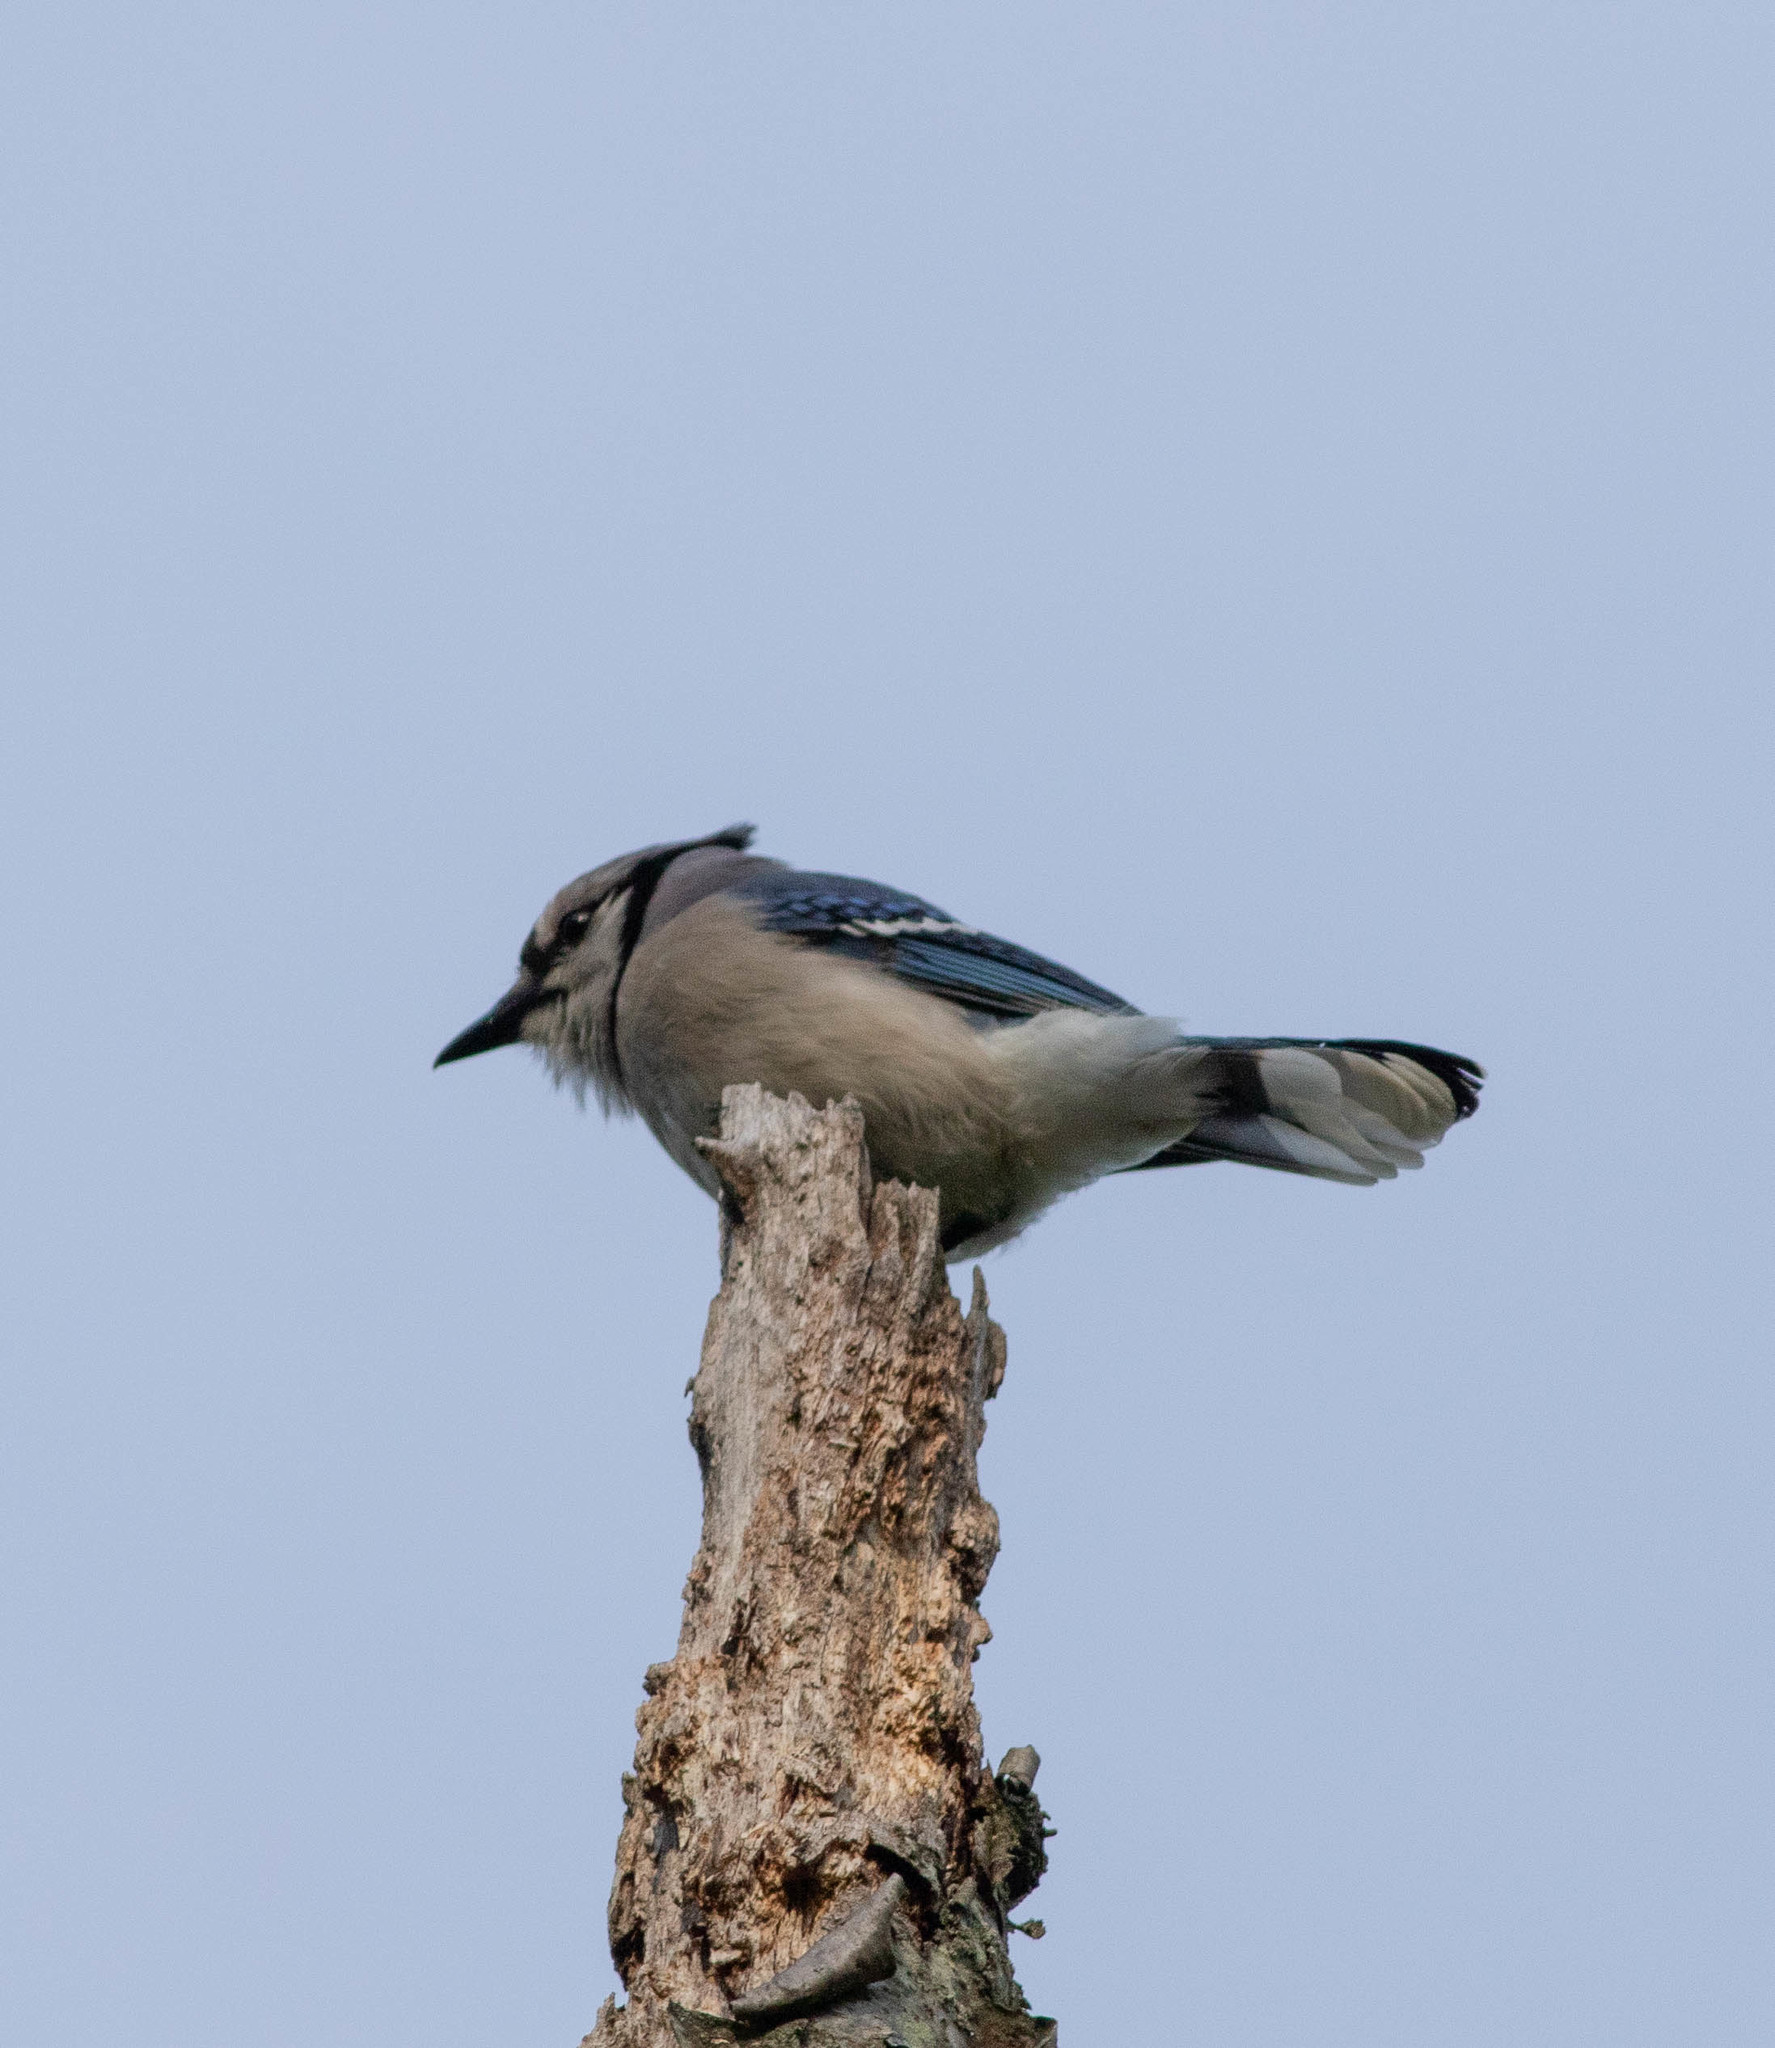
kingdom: Animalia
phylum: Chordata
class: Aves
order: Passeriformes
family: Corvidae
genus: Cyanocitta
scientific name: Cyanocitta cristata
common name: Blue jay
